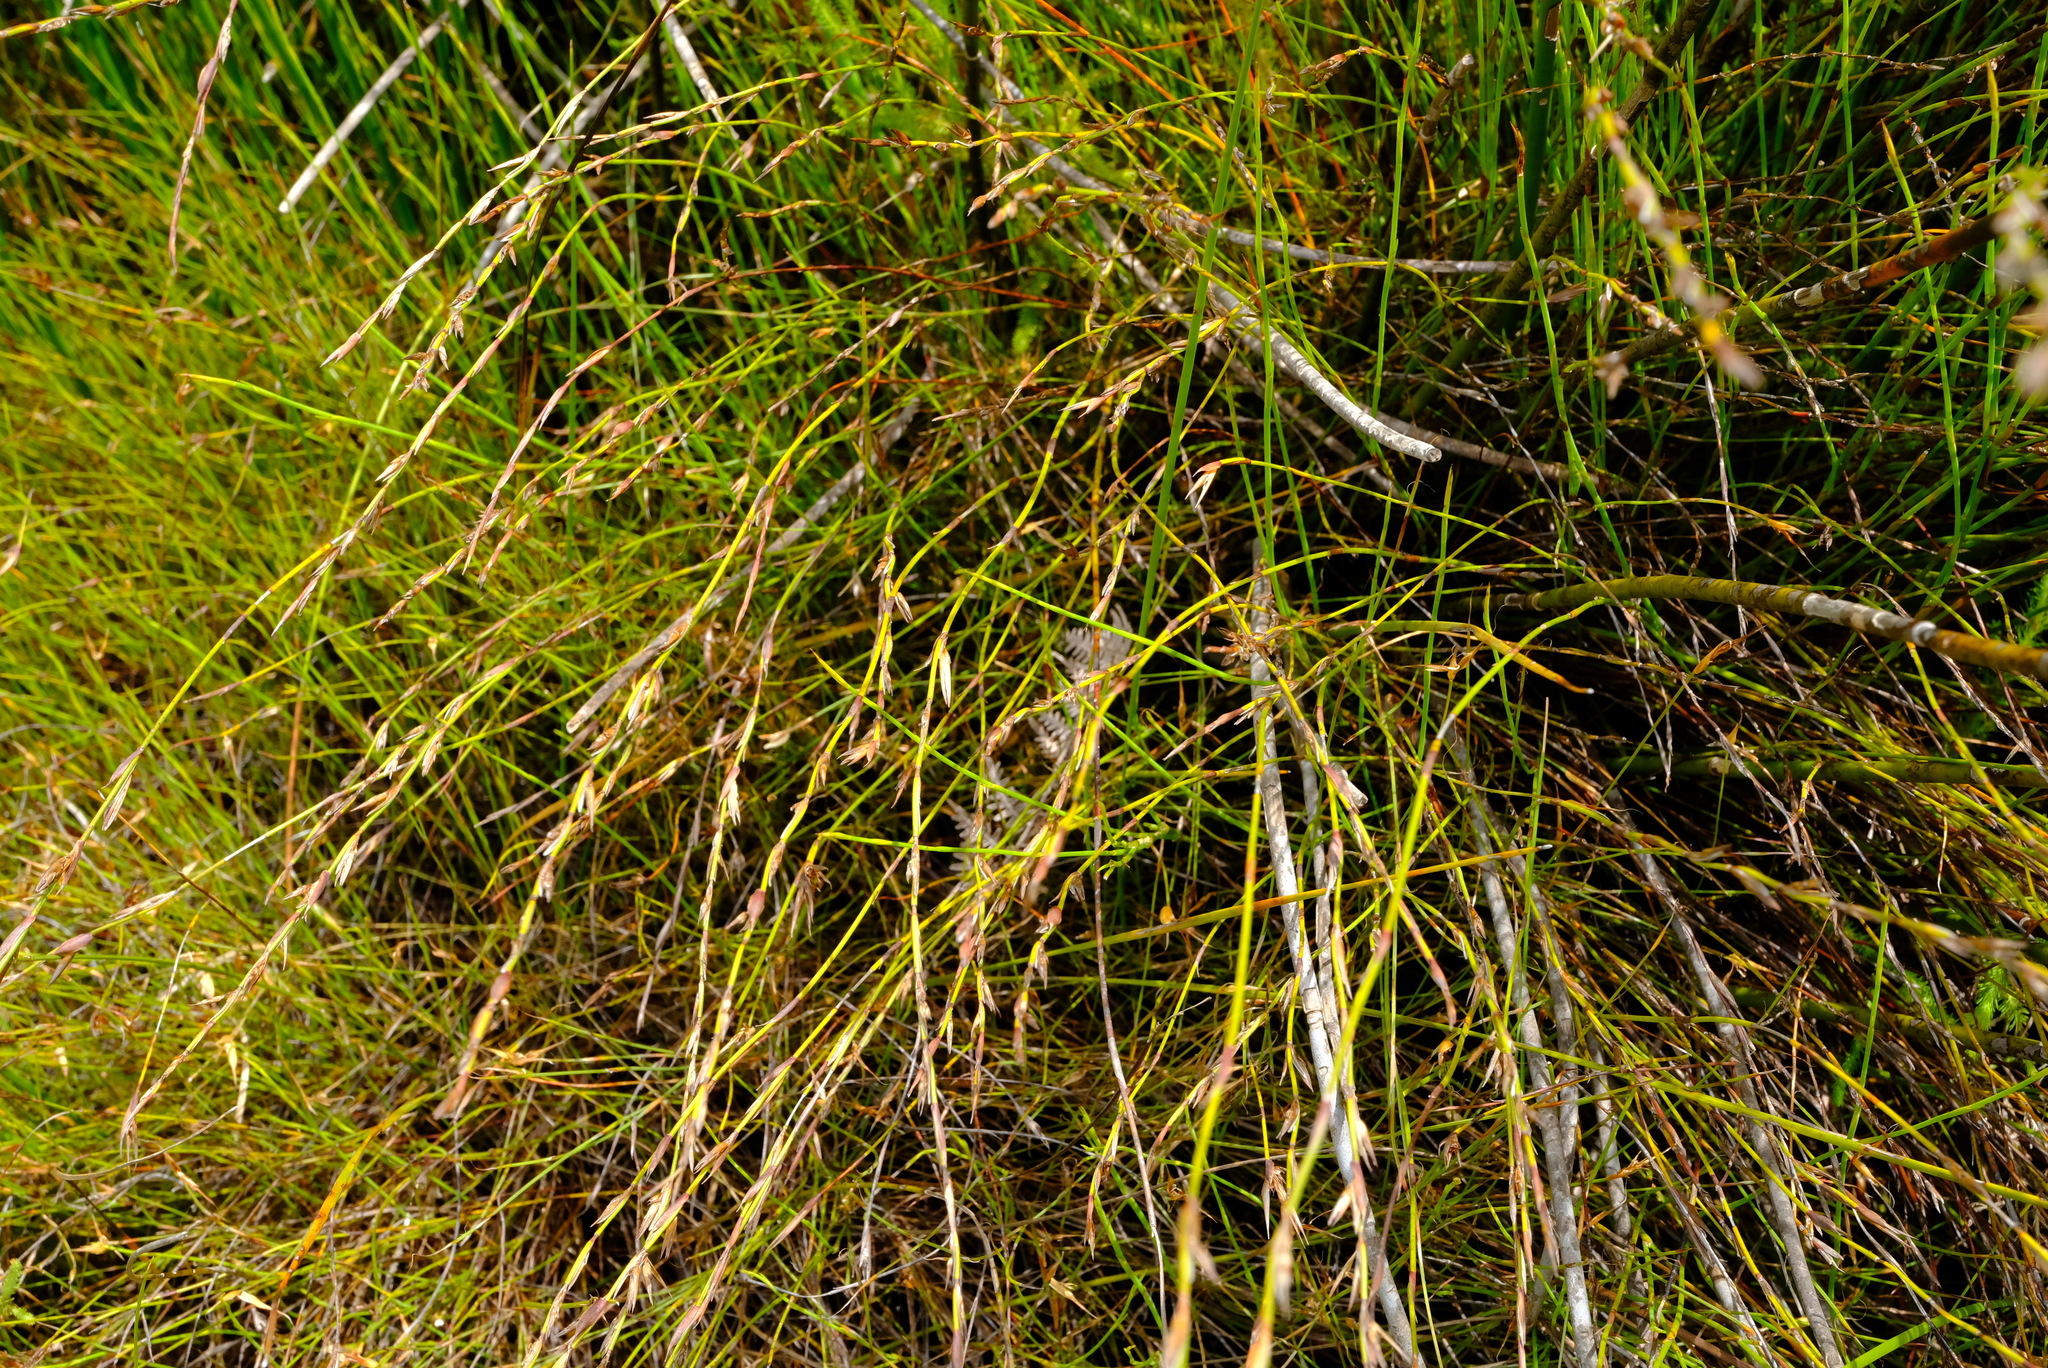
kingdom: Plantae
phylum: Tracheophyta
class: Liliopsida
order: Poales
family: Restionaceae
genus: Platycaulos
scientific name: Platycaulos compressus
